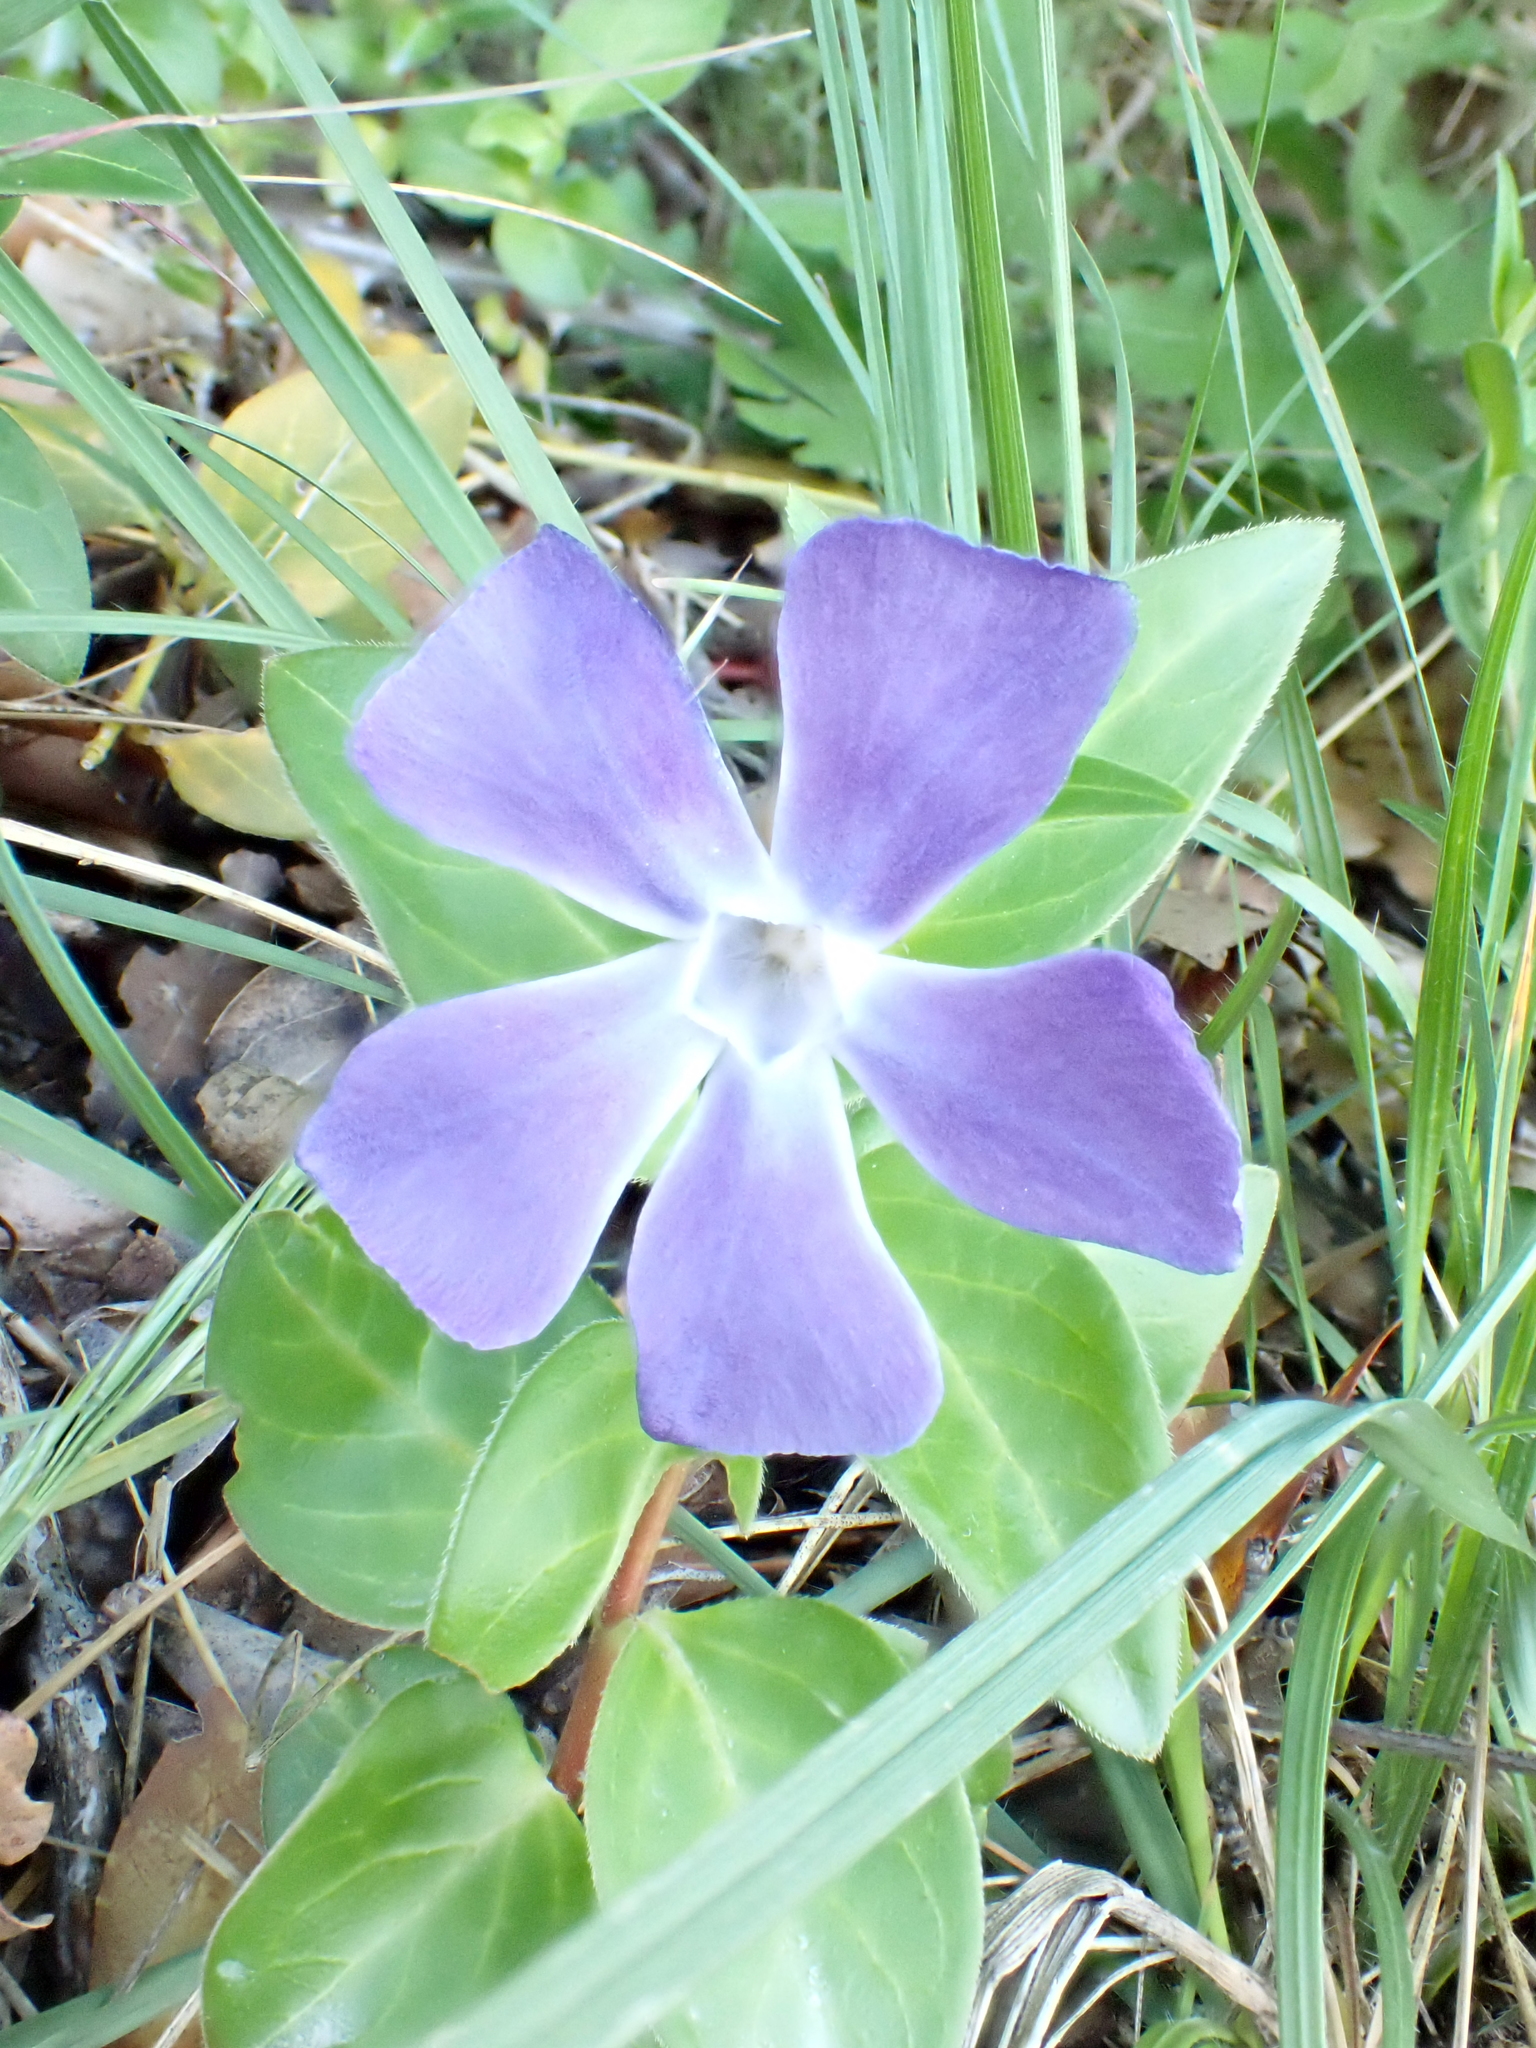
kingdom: Plantae
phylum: Tracheophyta
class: Magnoliopsida
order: Gentianales
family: Apocynaceae
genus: Vinca
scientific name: Vinca major
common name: Greater periwinkle
